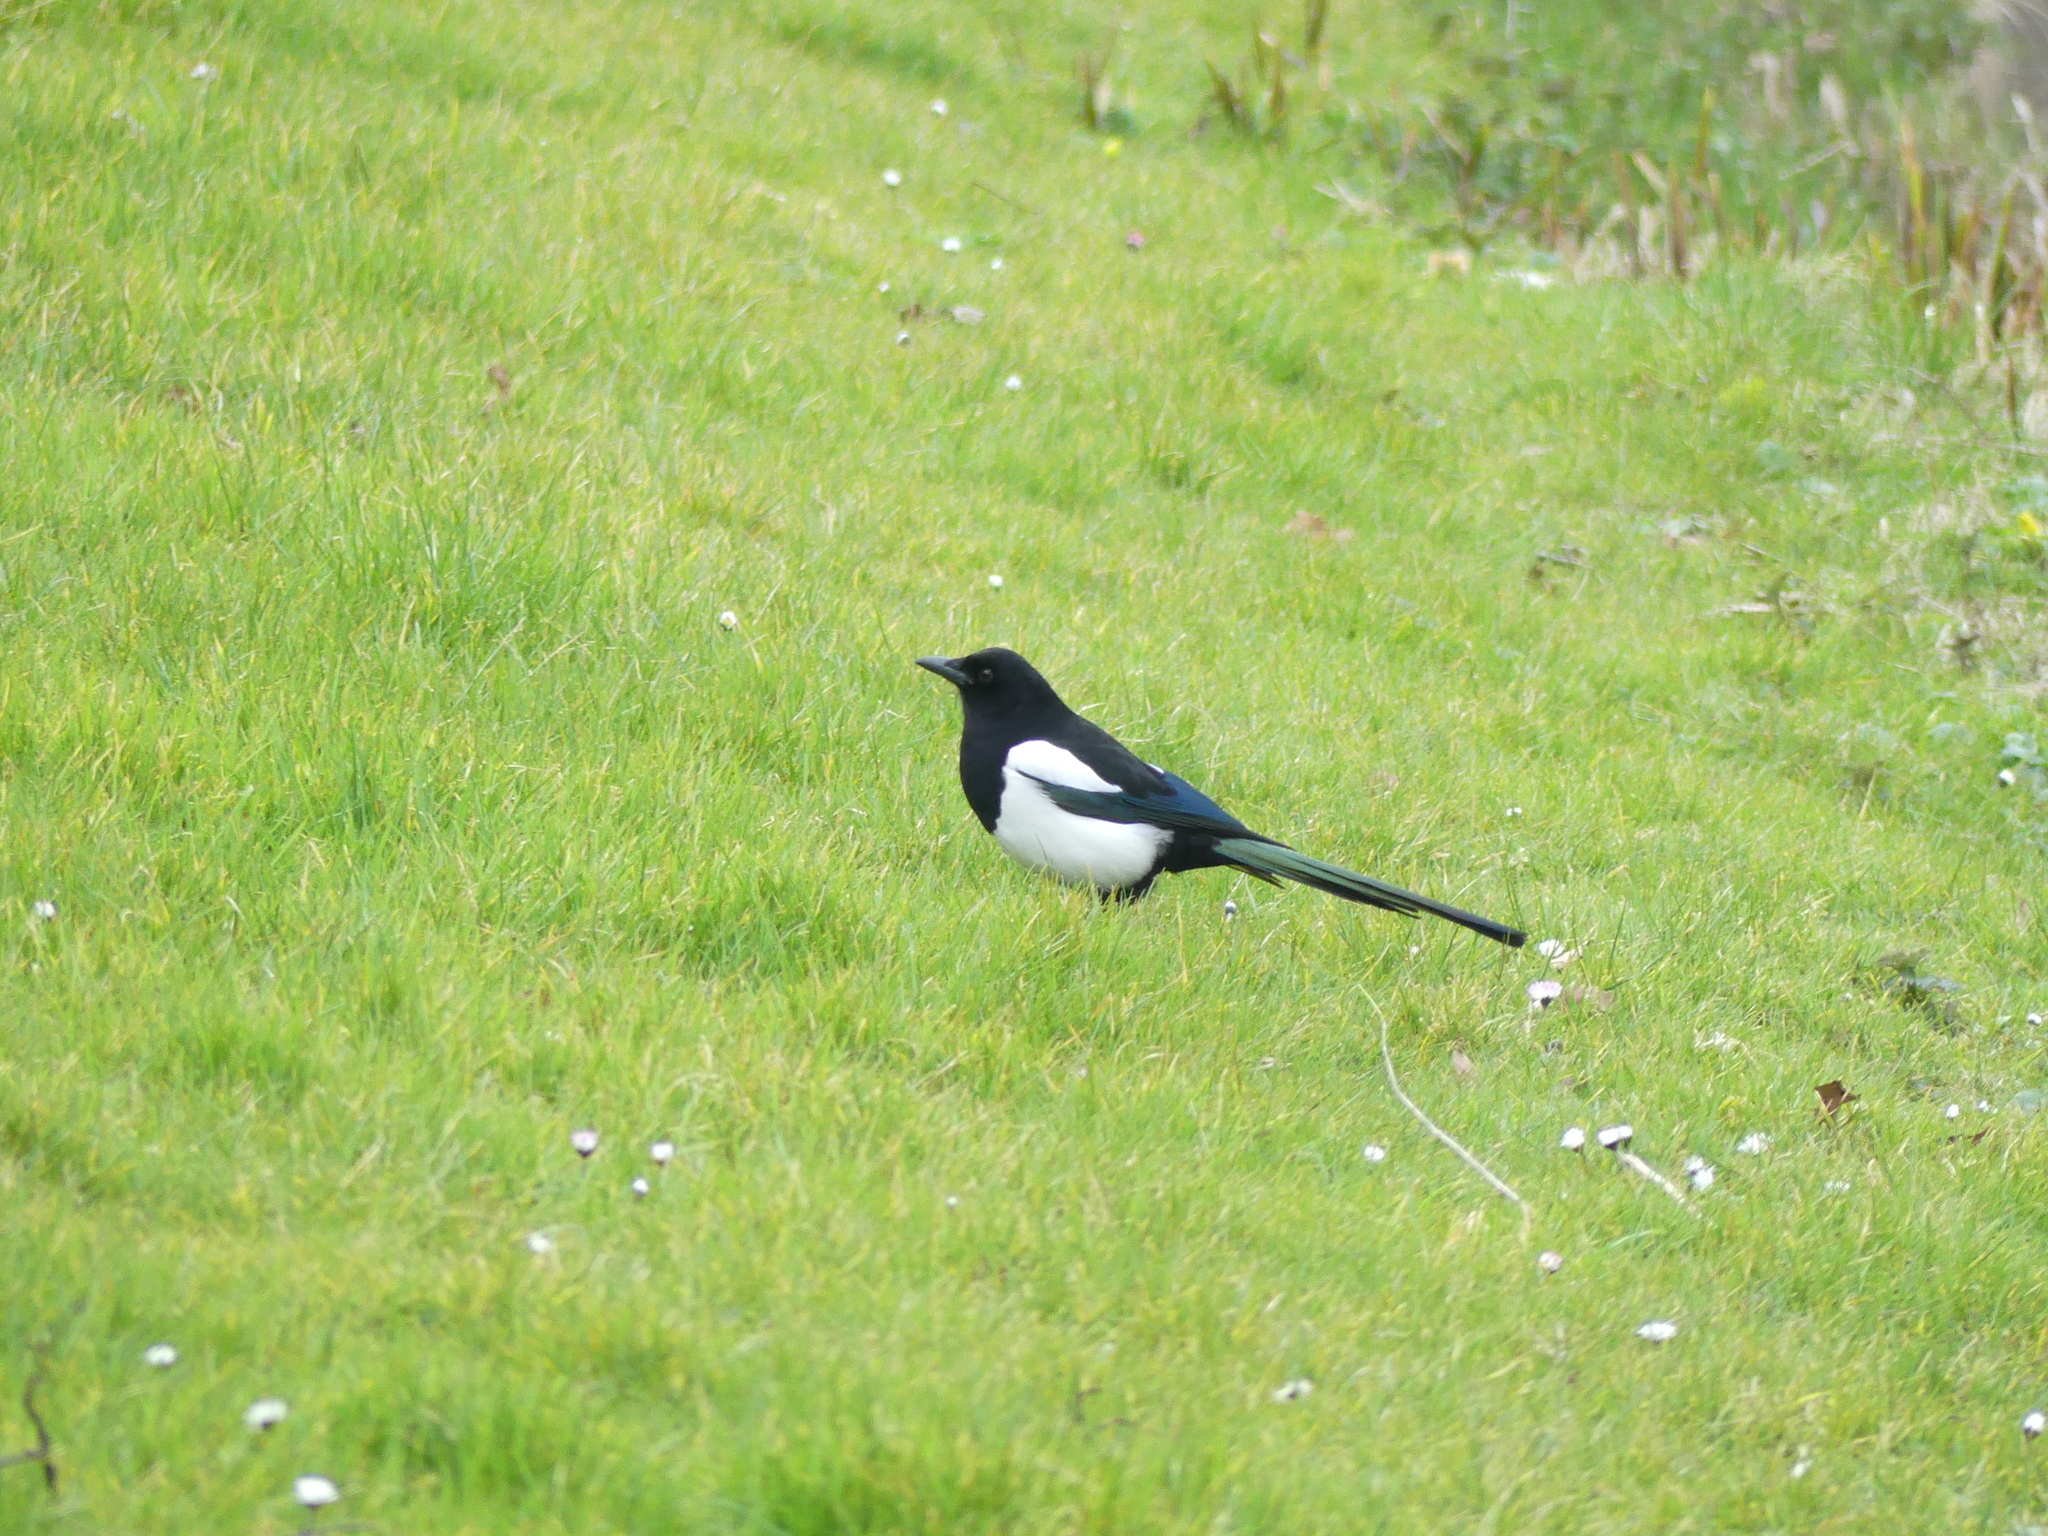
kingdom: Animalia
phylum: Chordata
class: Aves
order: Passeriformes
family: Corvidae
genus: Pica
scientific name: Pica pica
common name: Eurasian magpie
